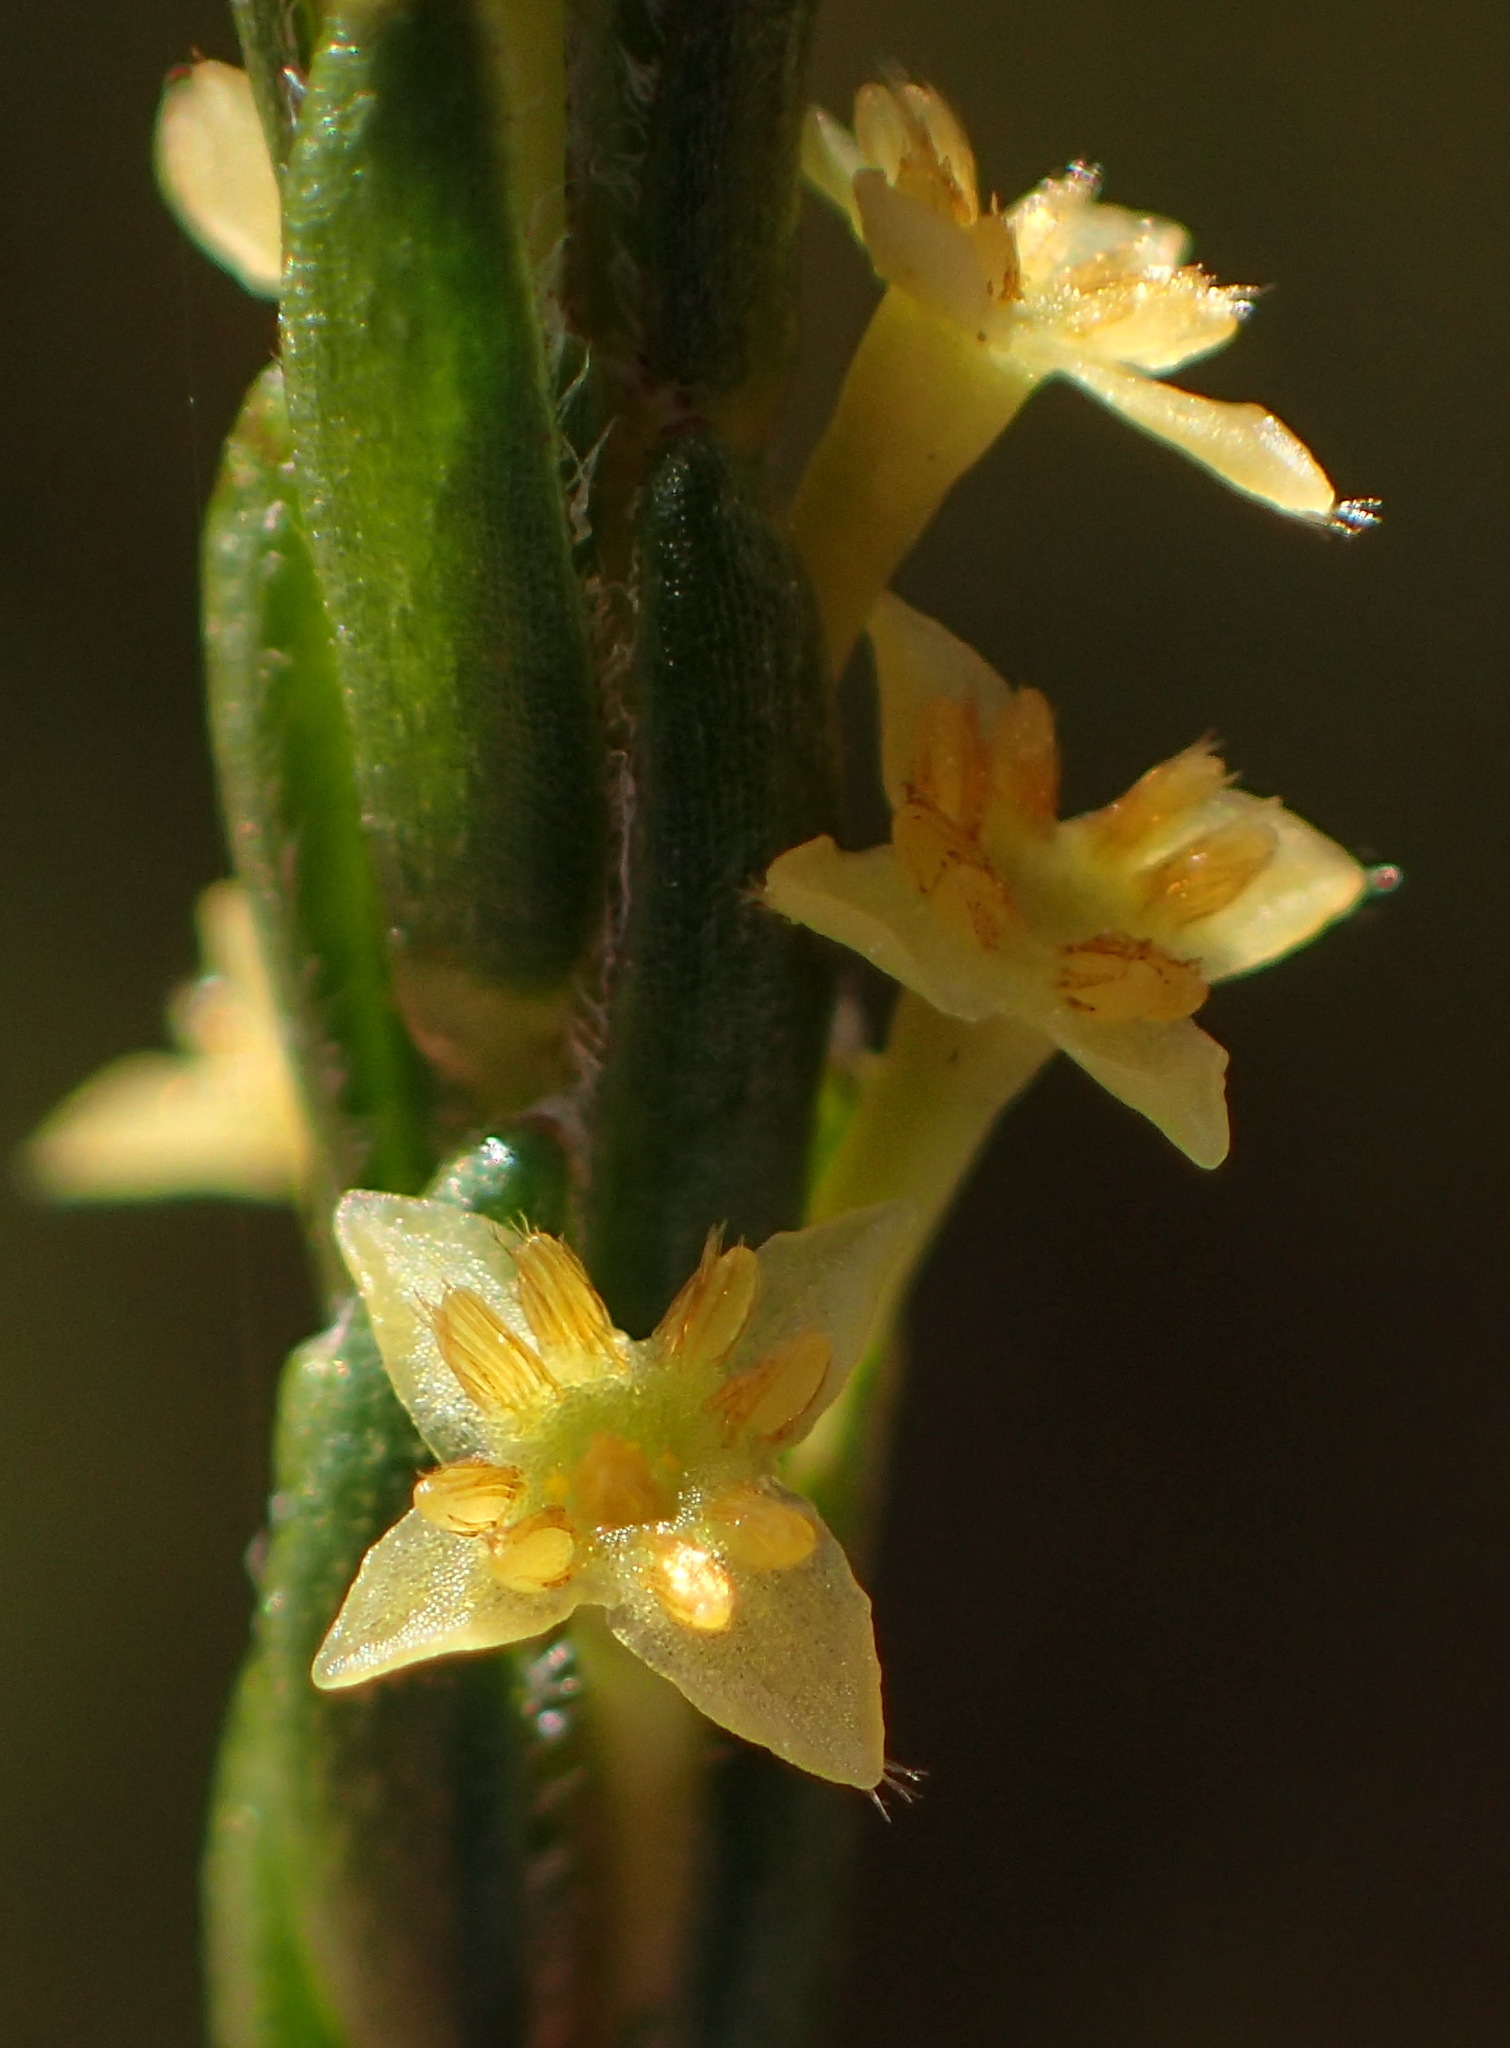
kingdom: Plantae
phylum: Tracheophyta
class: Magnoliopsida
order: Malvales
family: Thymelaeaceae
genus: Struthiola
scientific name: Struthiola parviflora
